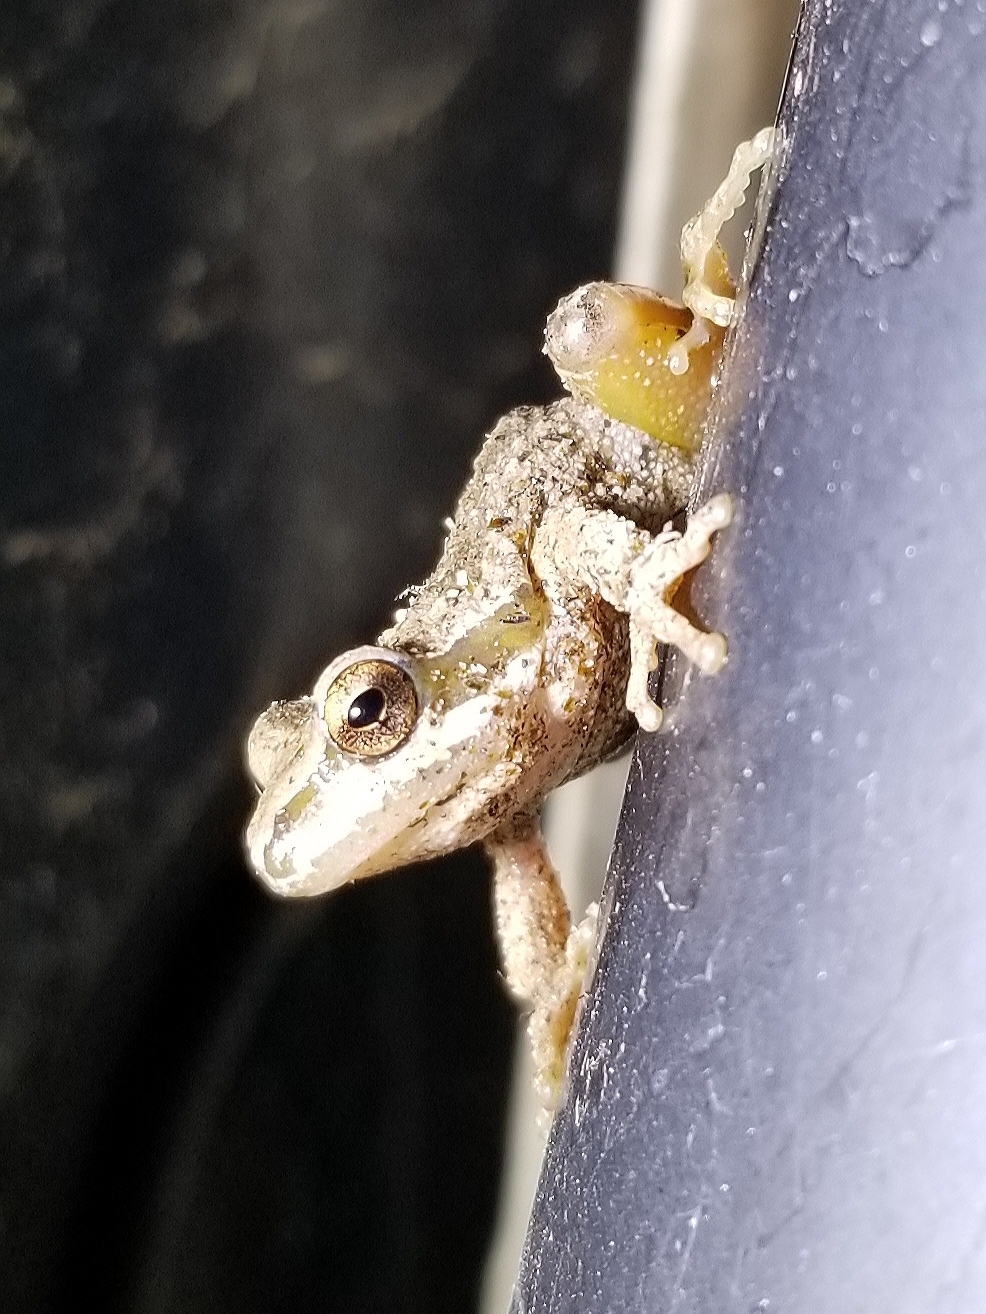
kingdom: Animalia
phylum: Chordata
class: Amphibia
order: Anura
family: Hylidae
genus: Pseudacris
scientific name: Pseudacris regilla
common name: Pacific chorus frog
